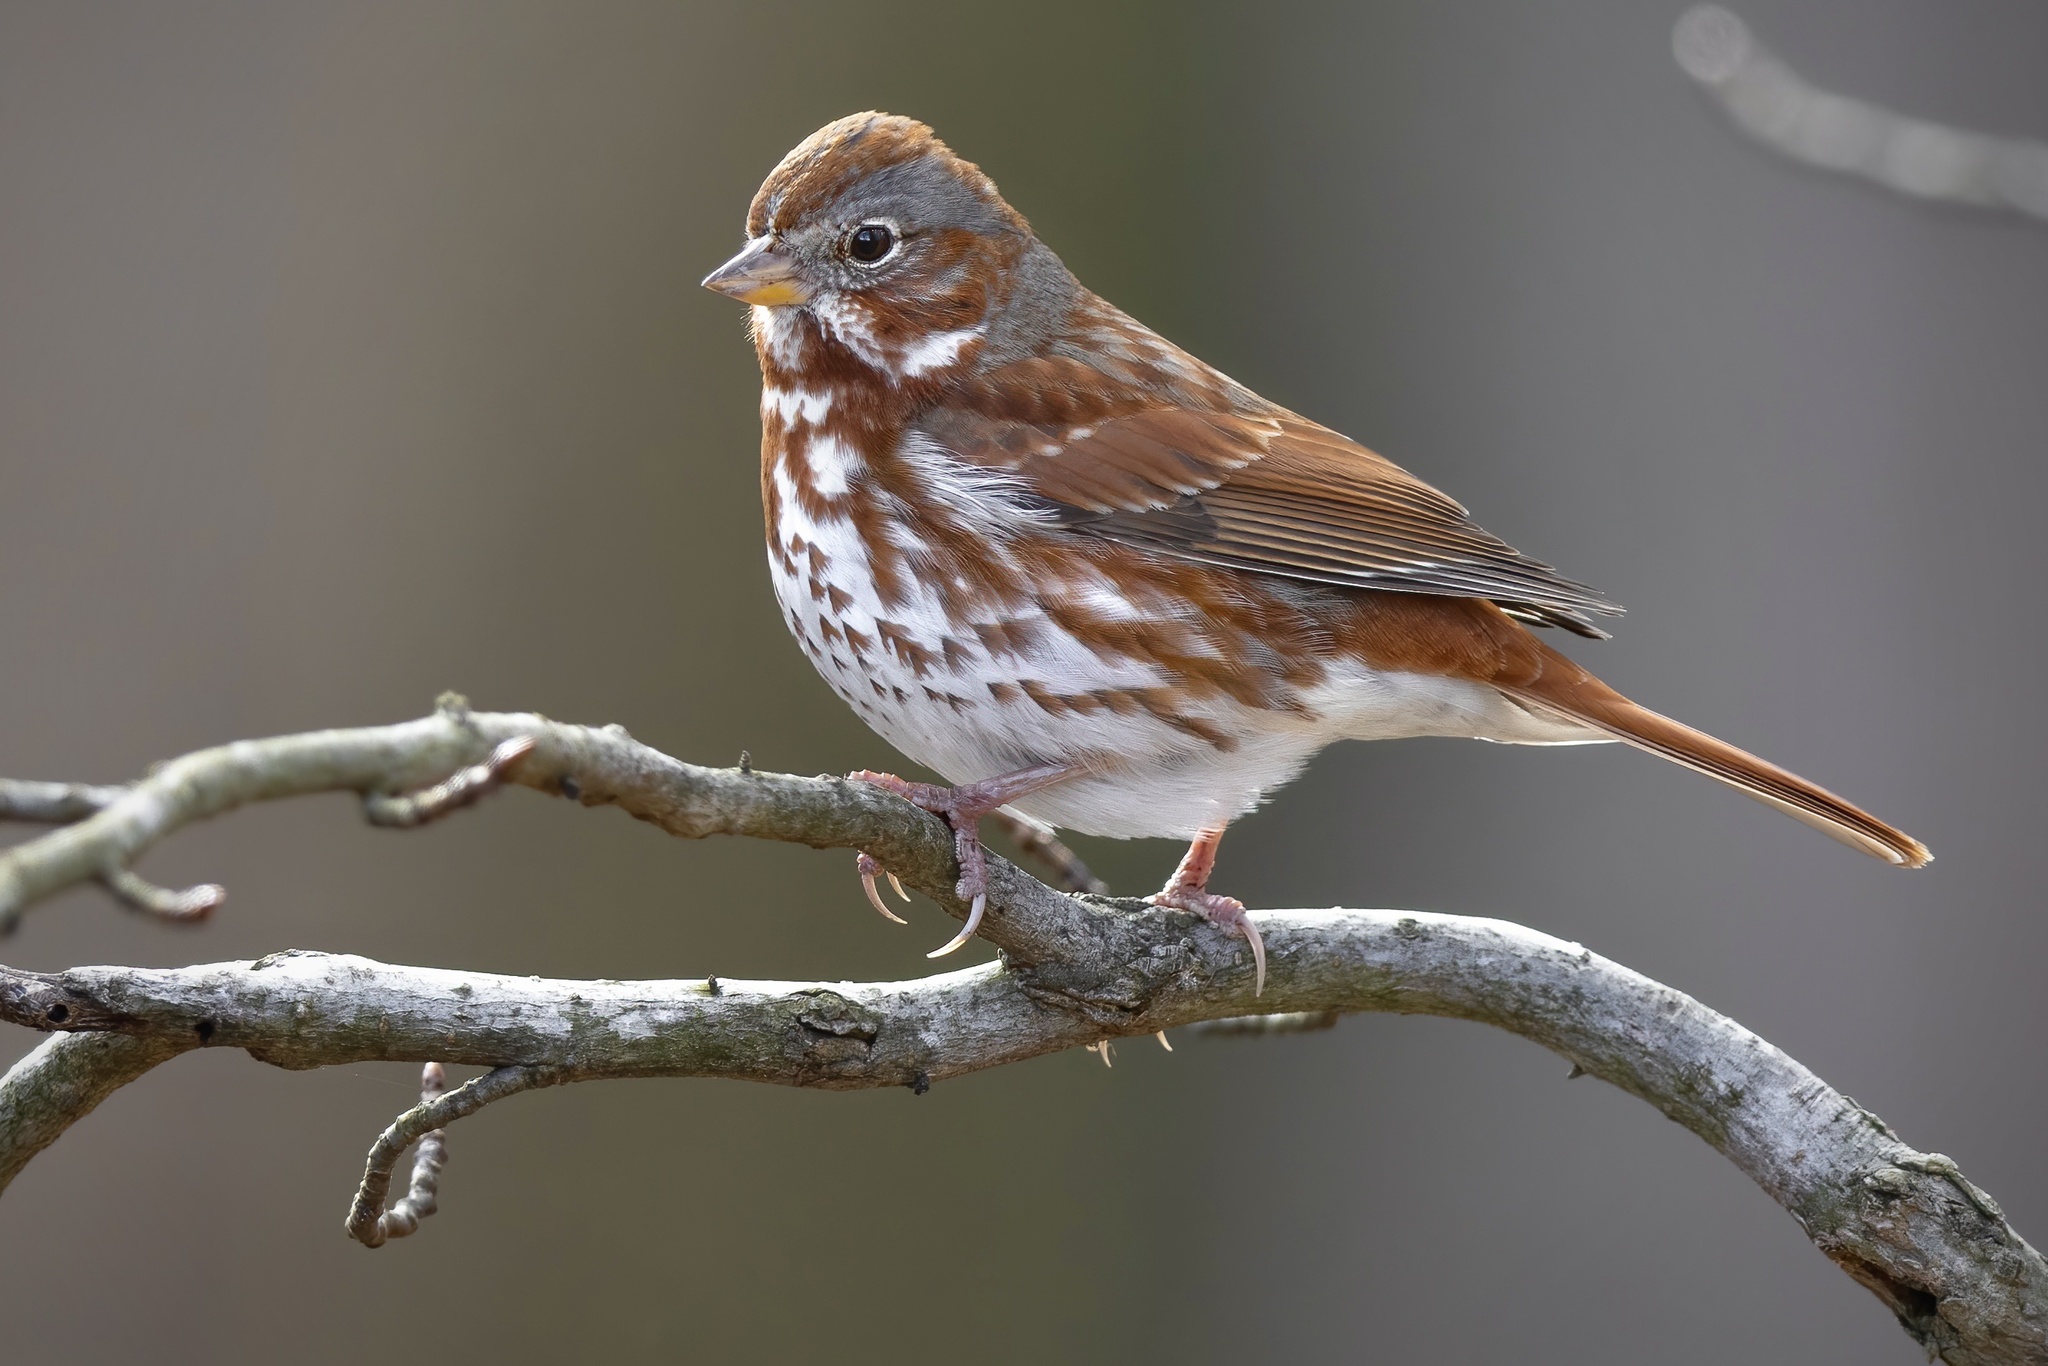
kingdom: Animalia
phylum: Chordata
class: Aves
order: Passeriformes
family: Passerellidae
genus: Passerella
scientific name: Passerella iliaca
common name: Fox sparrow
